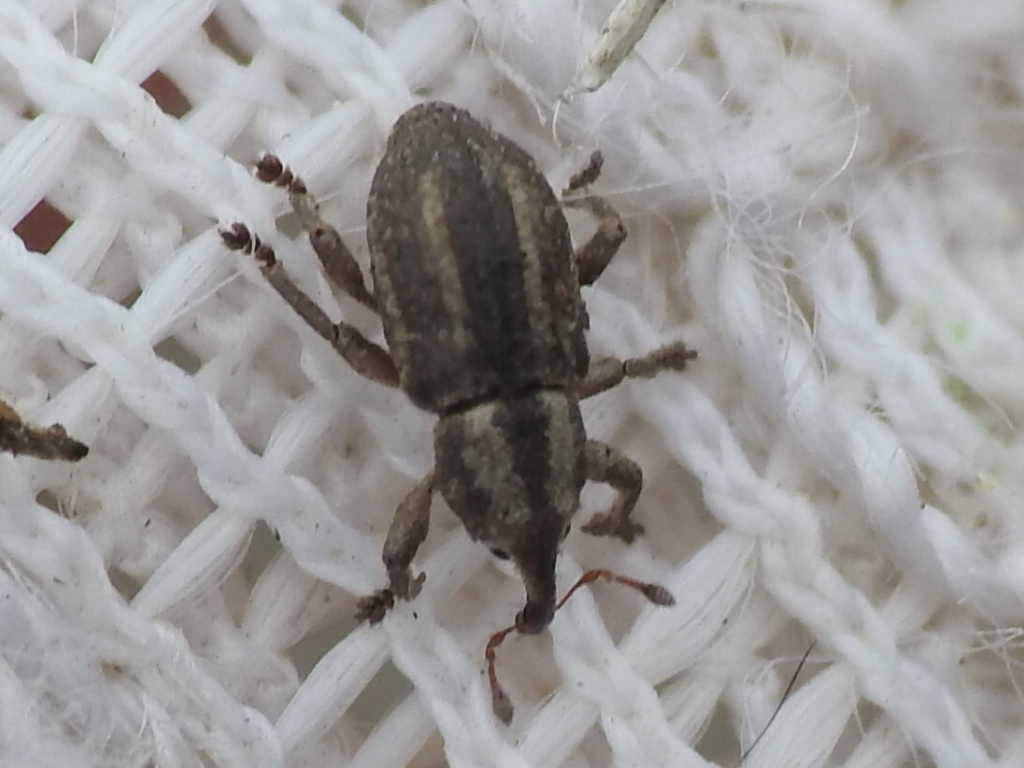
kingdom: Animalia
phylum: Arthropoda
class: Insecta
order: Coleoptera
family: Brachyceridae
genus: Brachybamus
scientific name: Brachybamus electus
